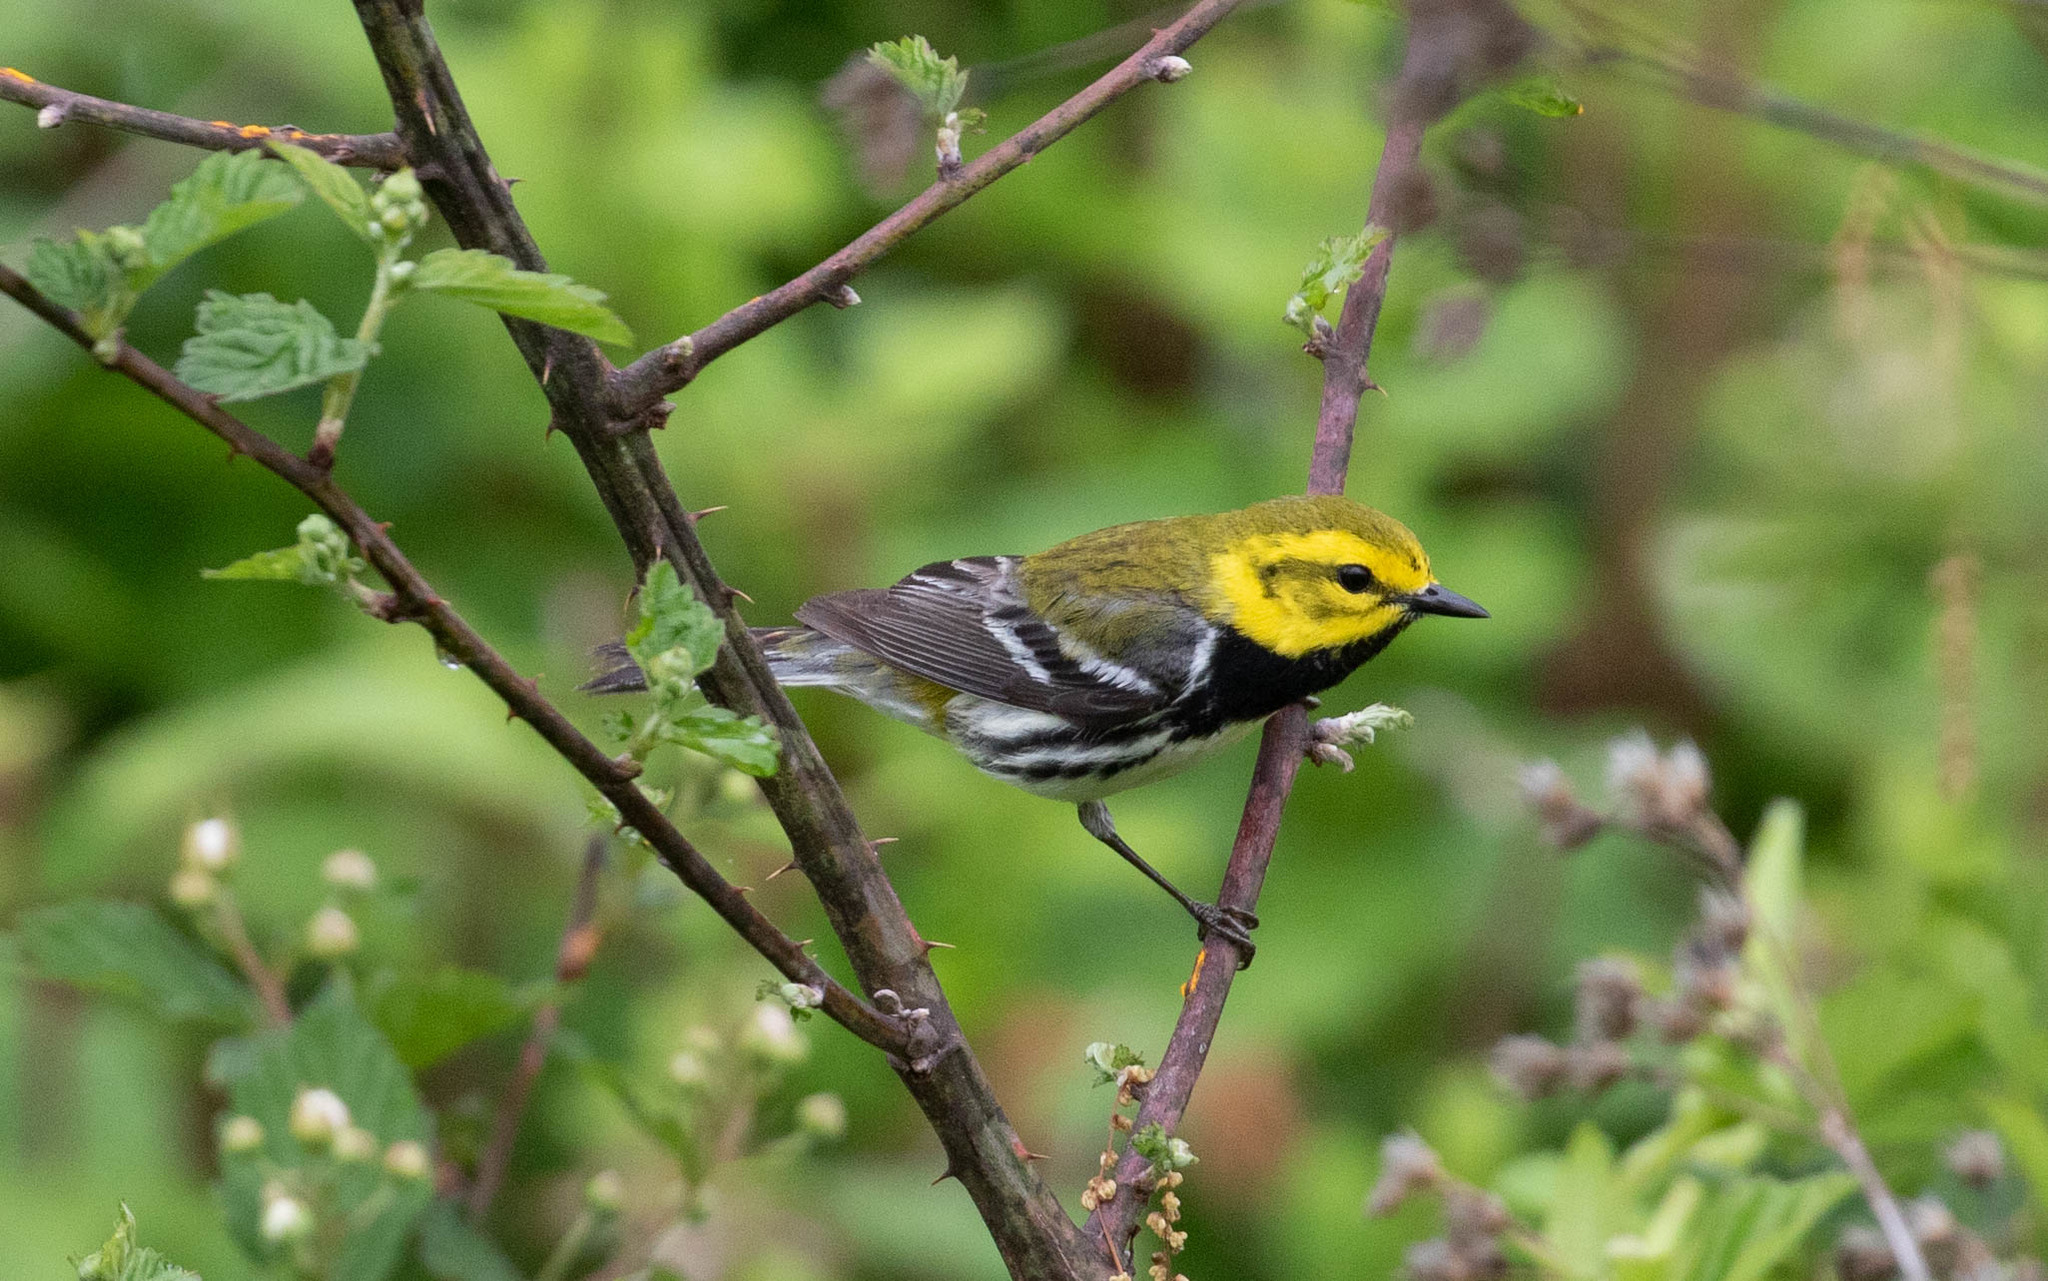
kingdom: Animalia
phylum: Chordata
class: Aves
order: Passeriformes
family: Parulidae
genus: Setophaga
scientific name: Setophaga virens
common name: Black-throated green warbler
